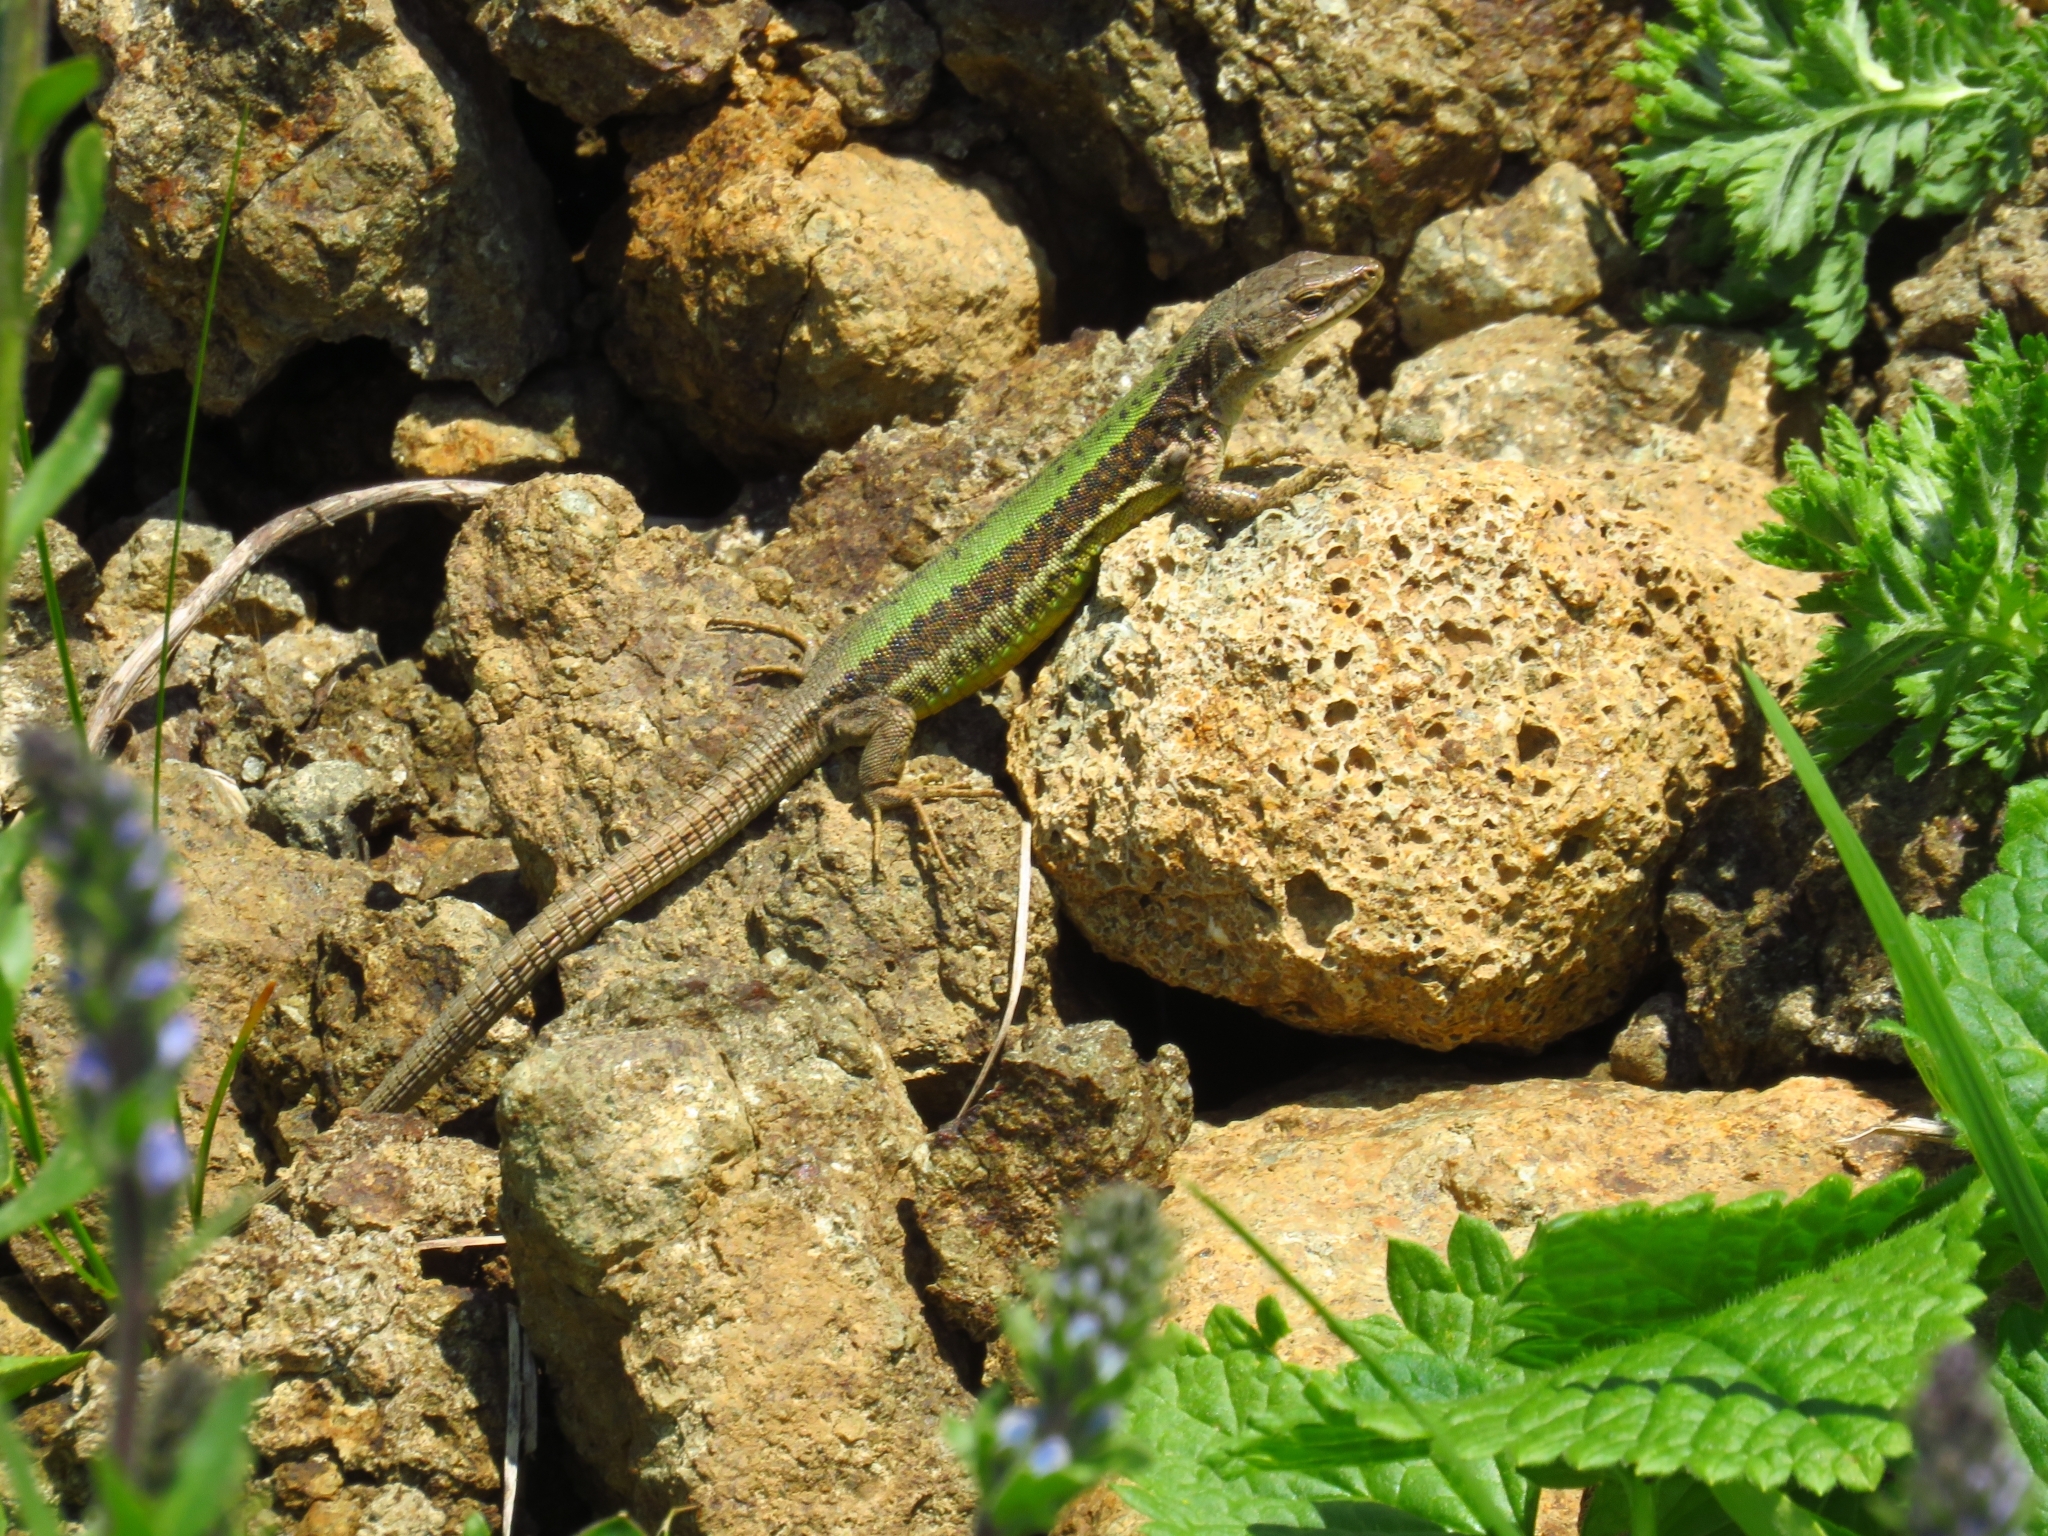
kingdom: Animalia
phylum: Chordata
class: Squamata
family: Lacertidae
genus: Darevskia
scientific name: Darevskia alpina
